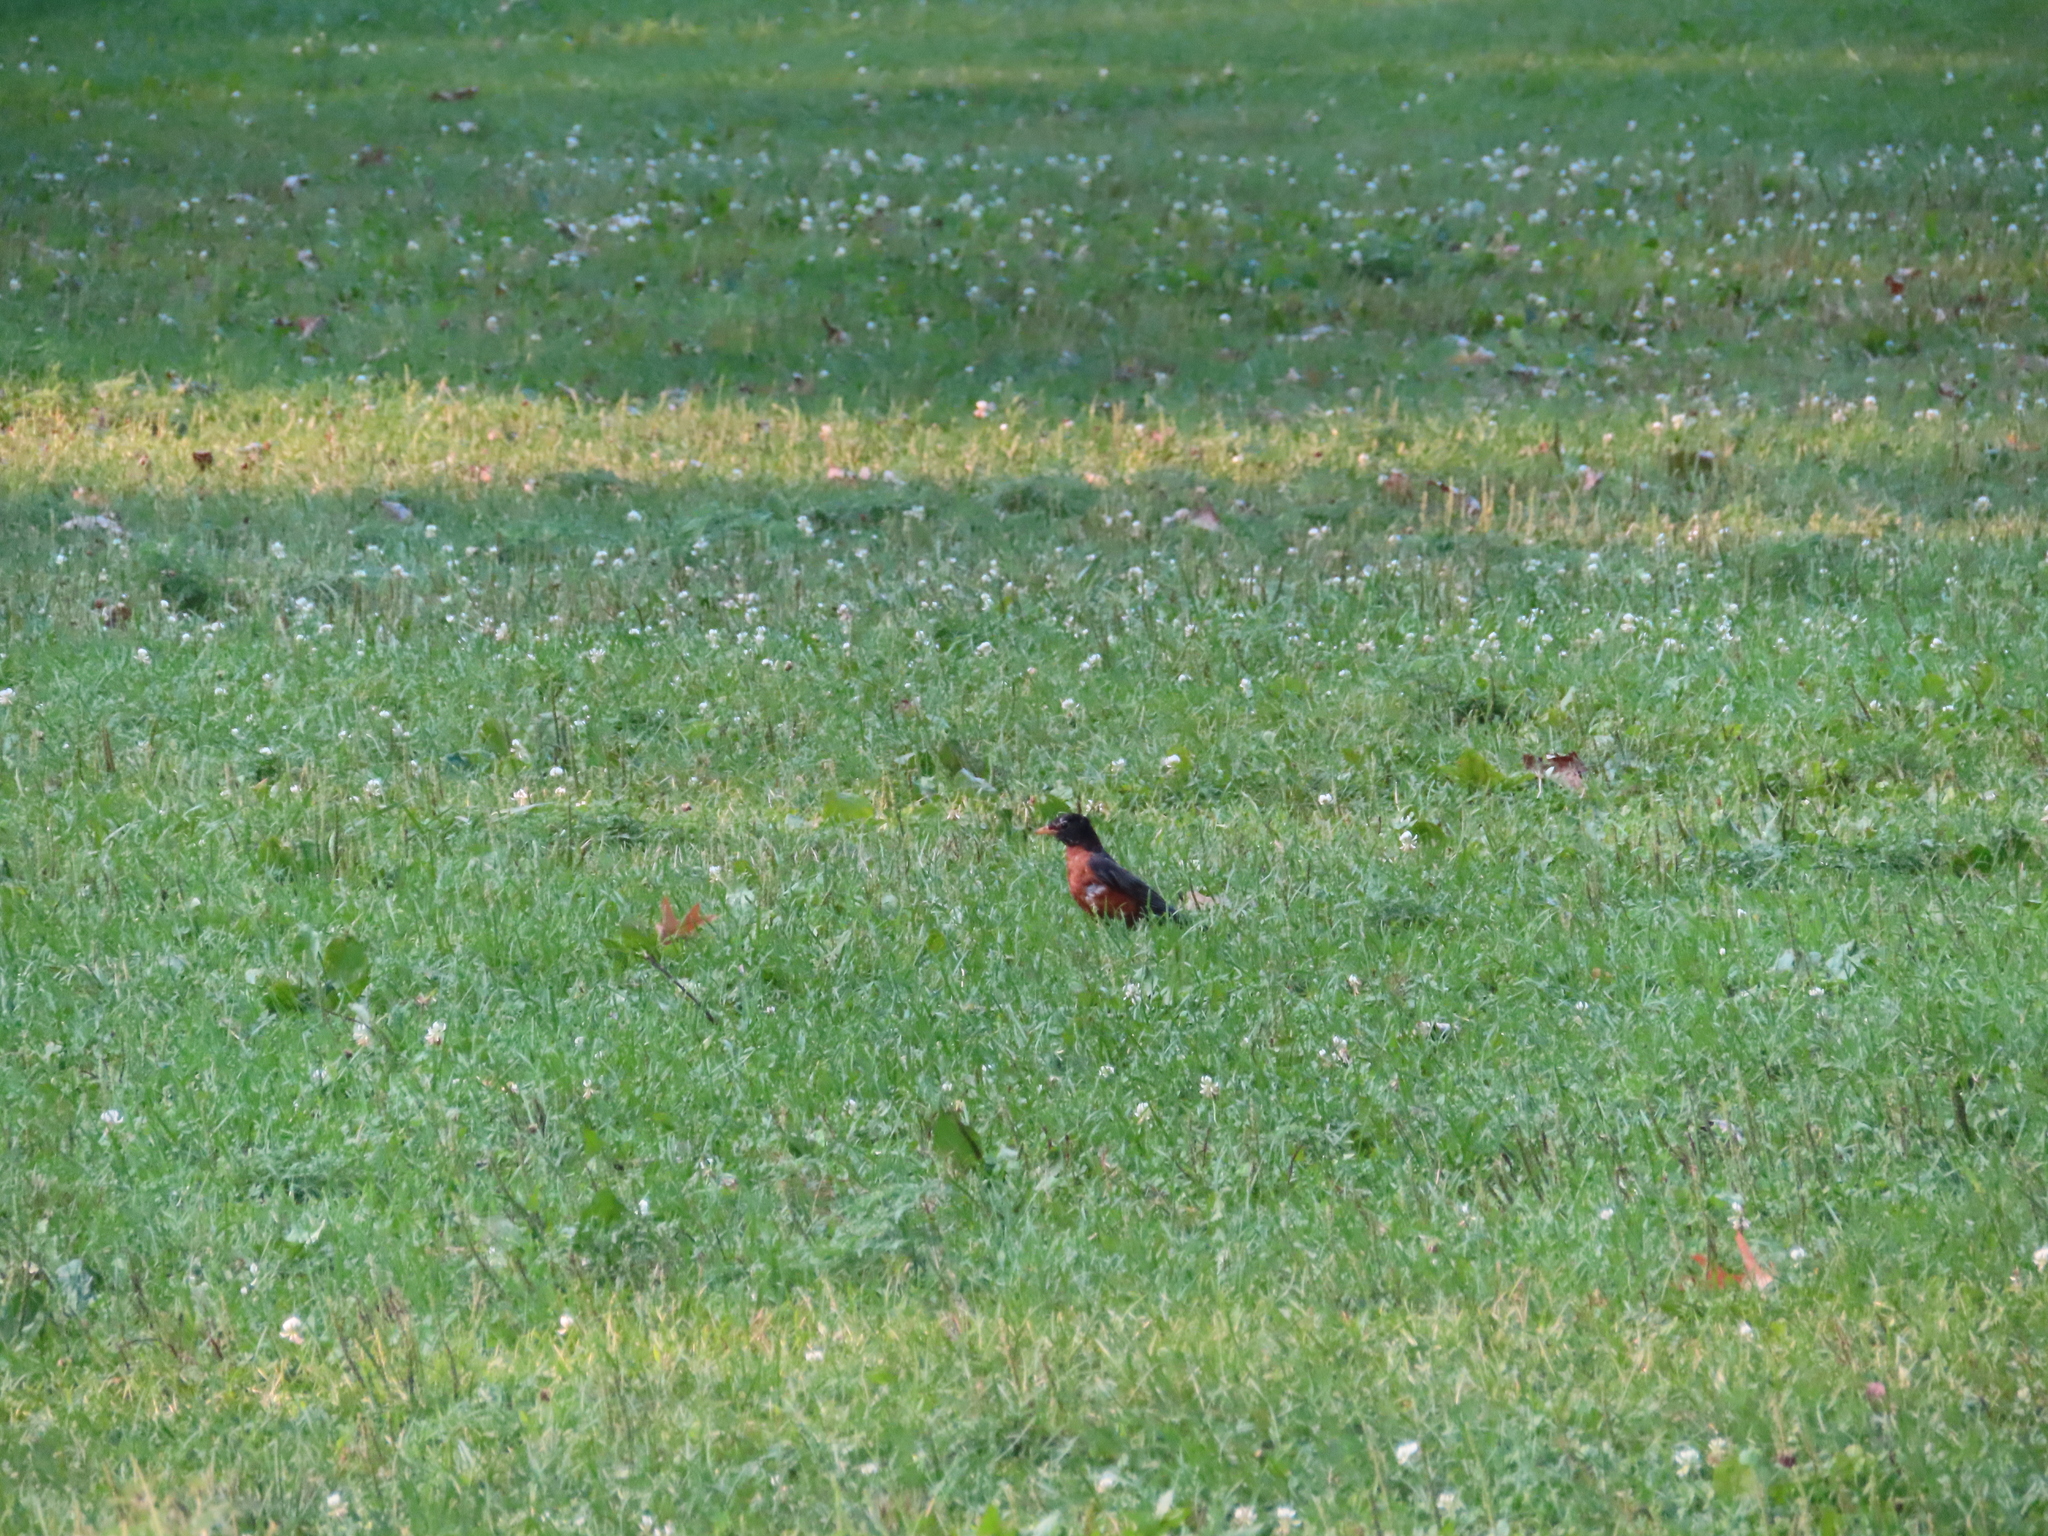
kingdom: Animalia
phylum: Chordata
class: Aves
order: Passeriformes
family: Turdidae
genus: Turdus
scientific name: Turdus migratorius
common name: American robin
